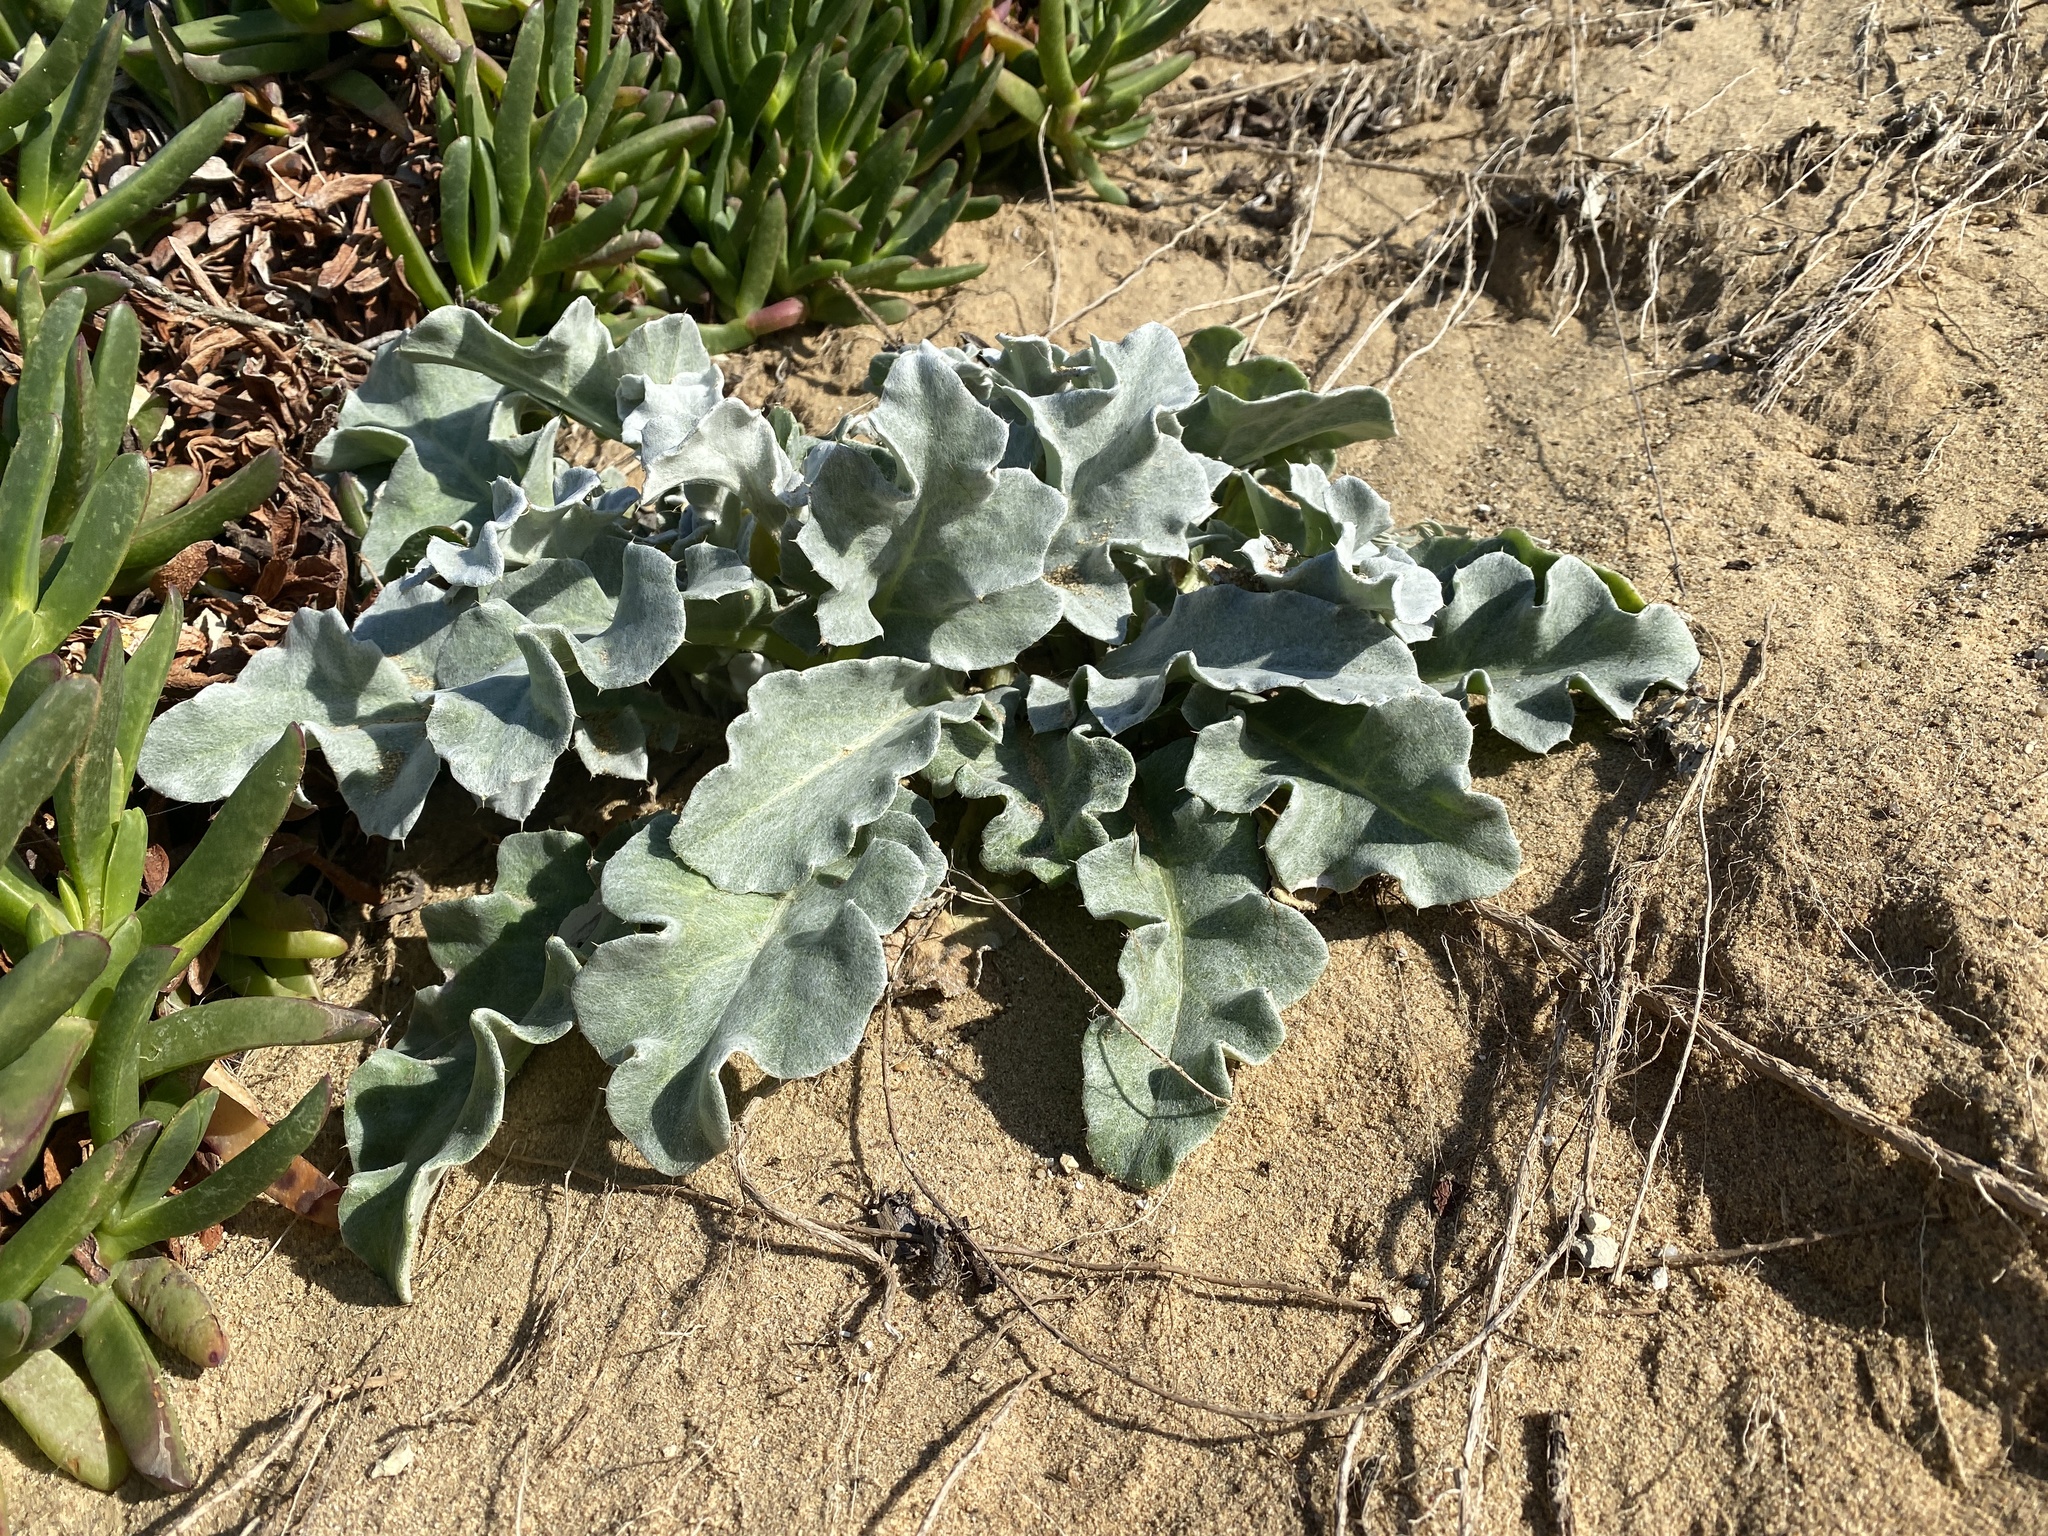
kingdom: Plantae
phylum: Tracheophyta
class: Magnoliopsida
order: Asterales
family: Asteraceae
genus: Cirsium
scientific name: Cirsium rhothophilum
